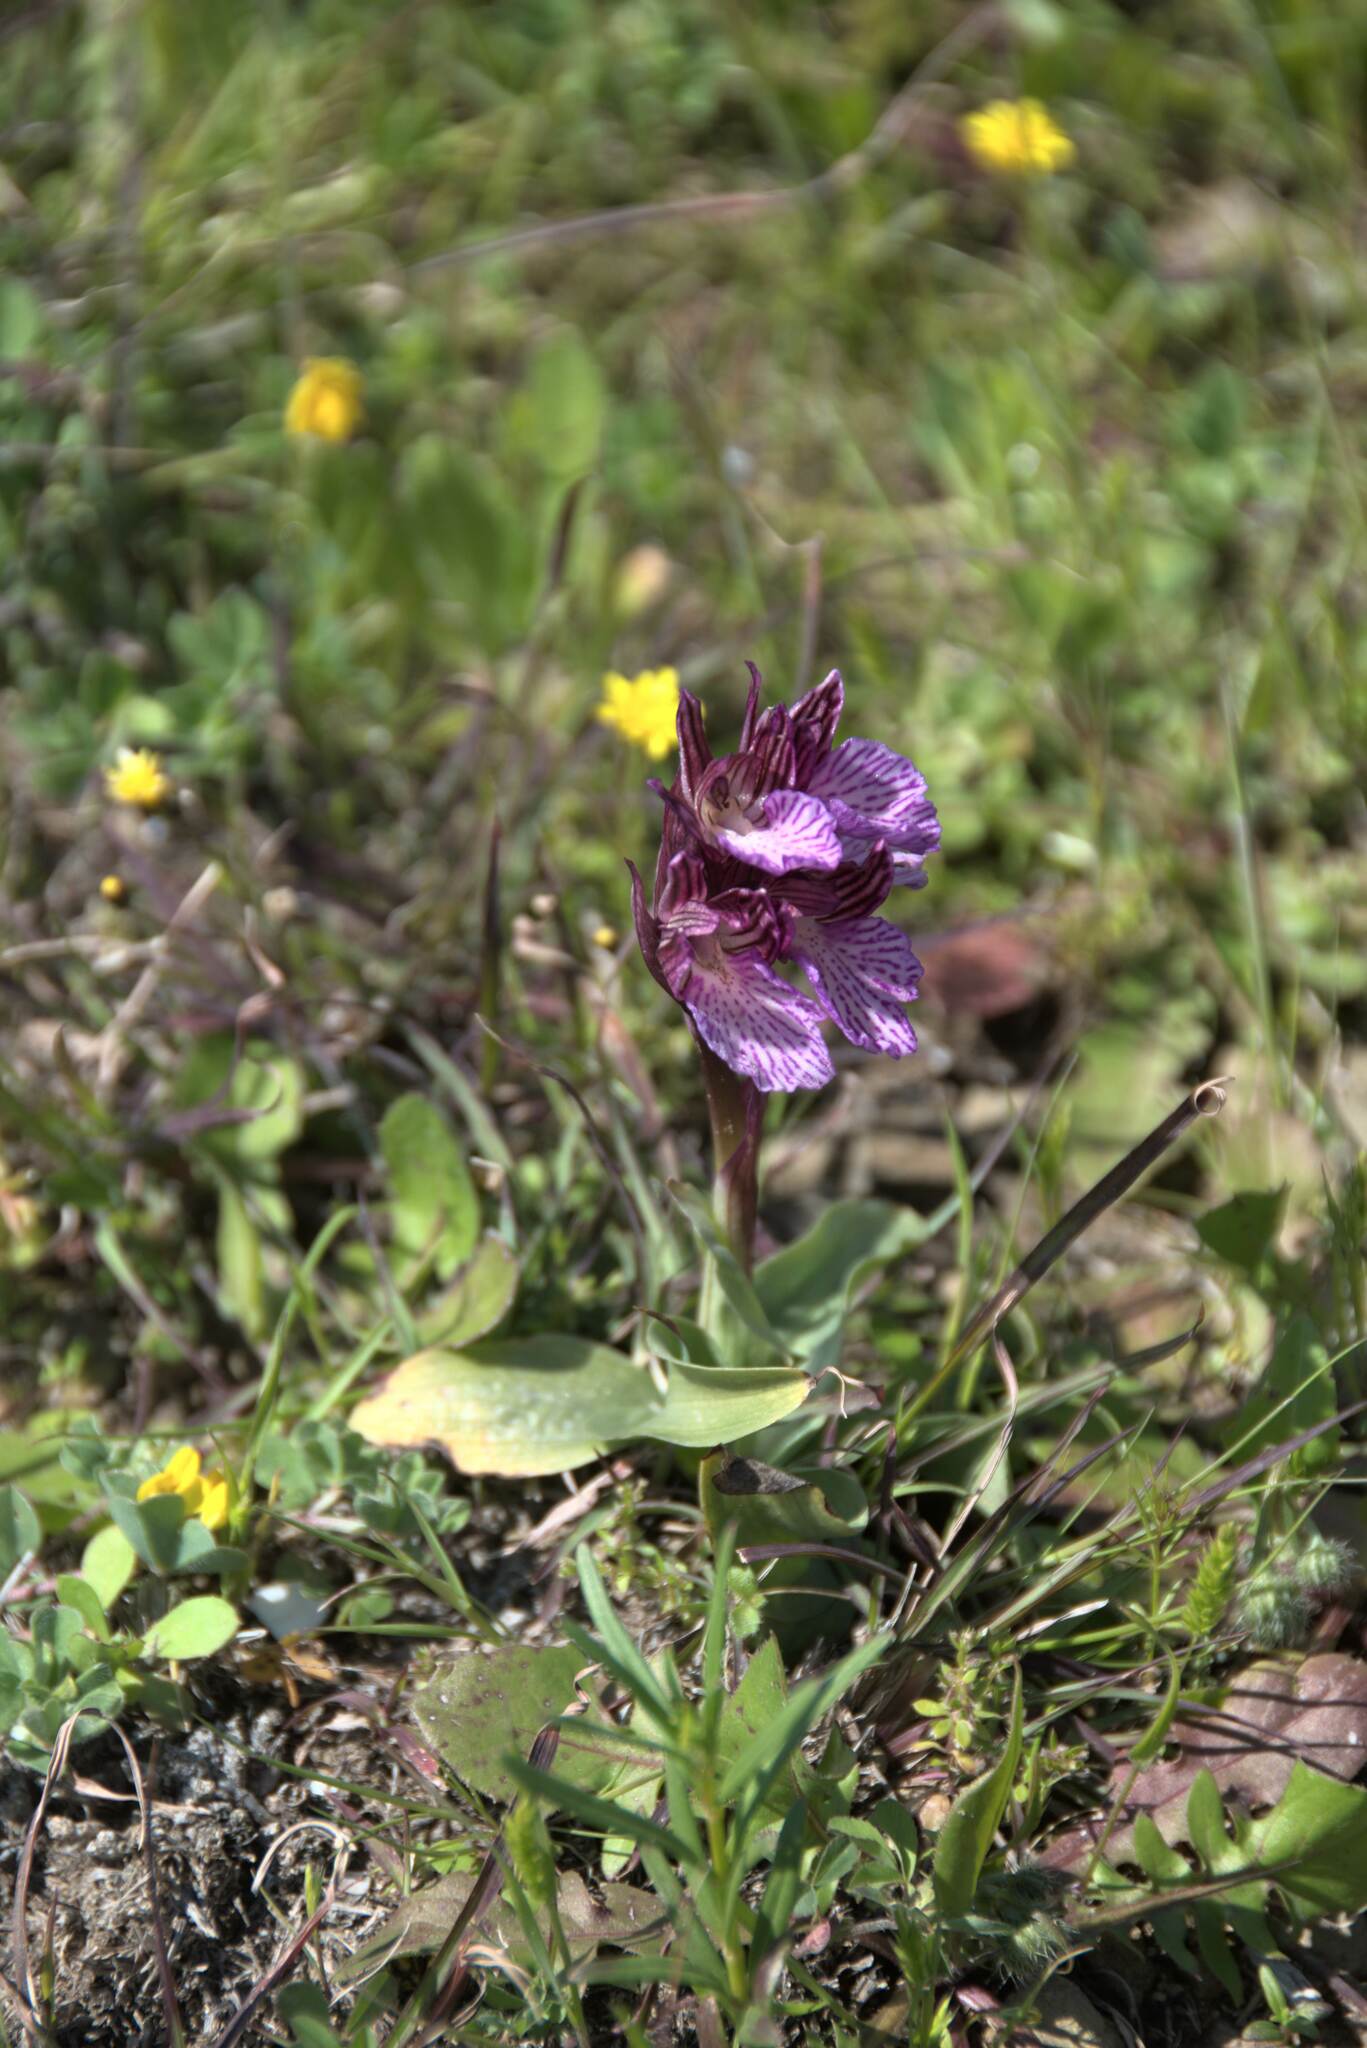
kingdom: Plantae
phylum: Tracheophyta
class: Liliopsida
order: Asparagales
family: Orchidaceae
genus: Anacamptis
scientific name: Anacamptis papilionacea
